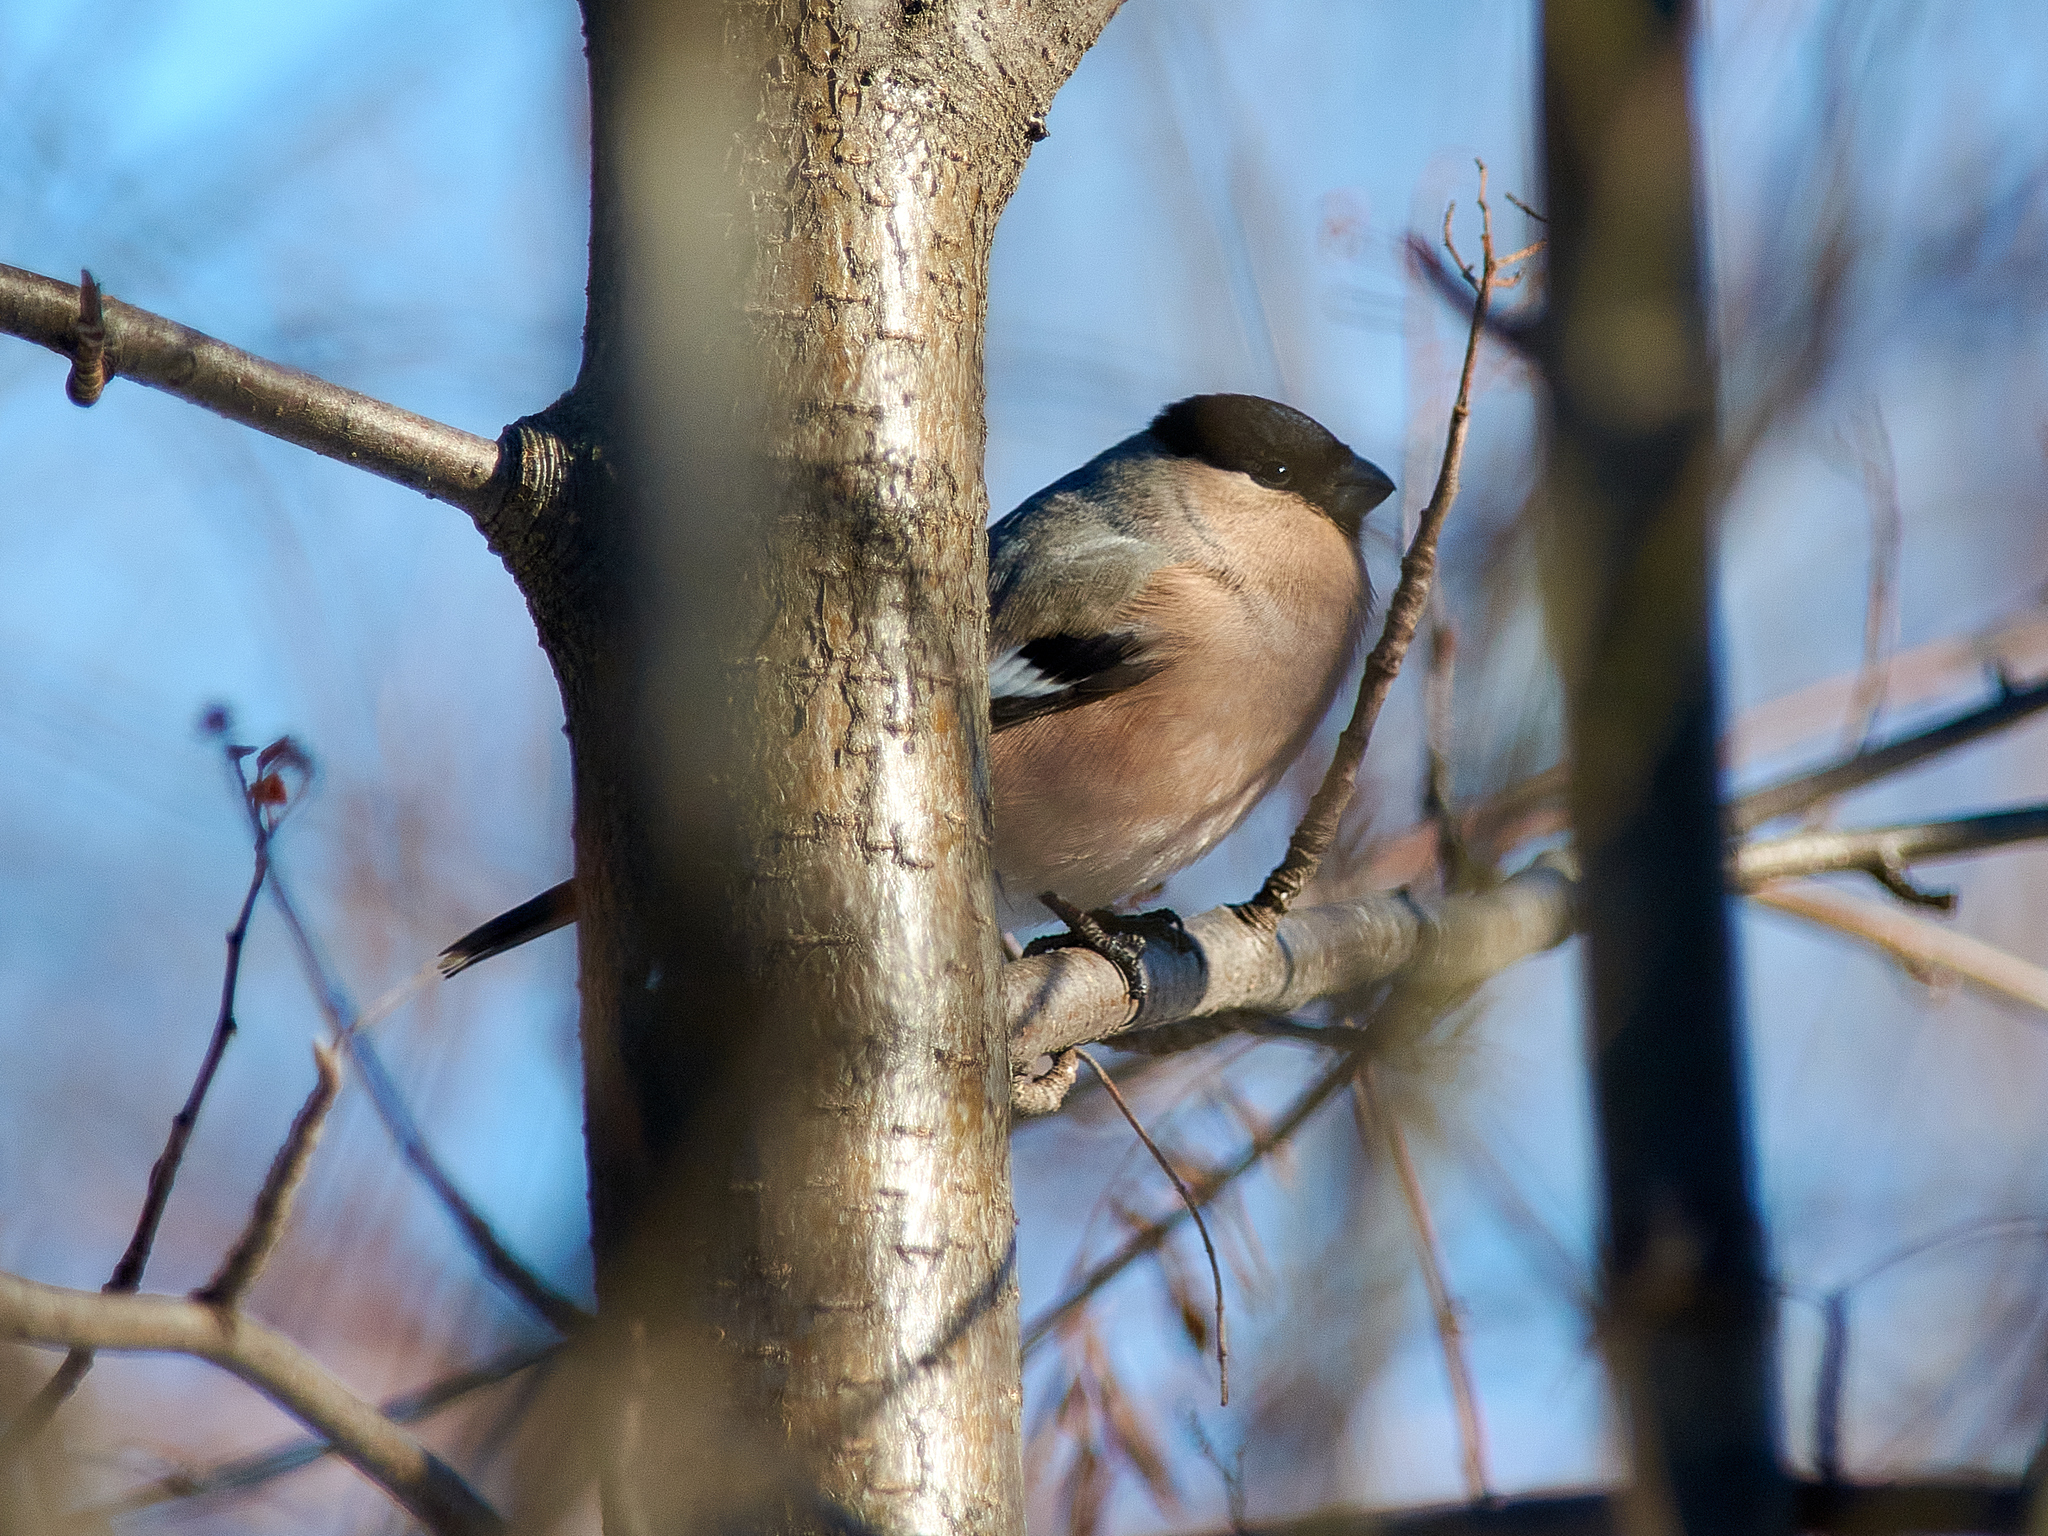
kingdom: Animalia
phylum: Chordata
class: Aves
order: Passeriformes
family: Fringillidae
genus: Pyrrhula
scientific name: Pyrrhula pyrrhula
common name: Eurasian bullfinch
